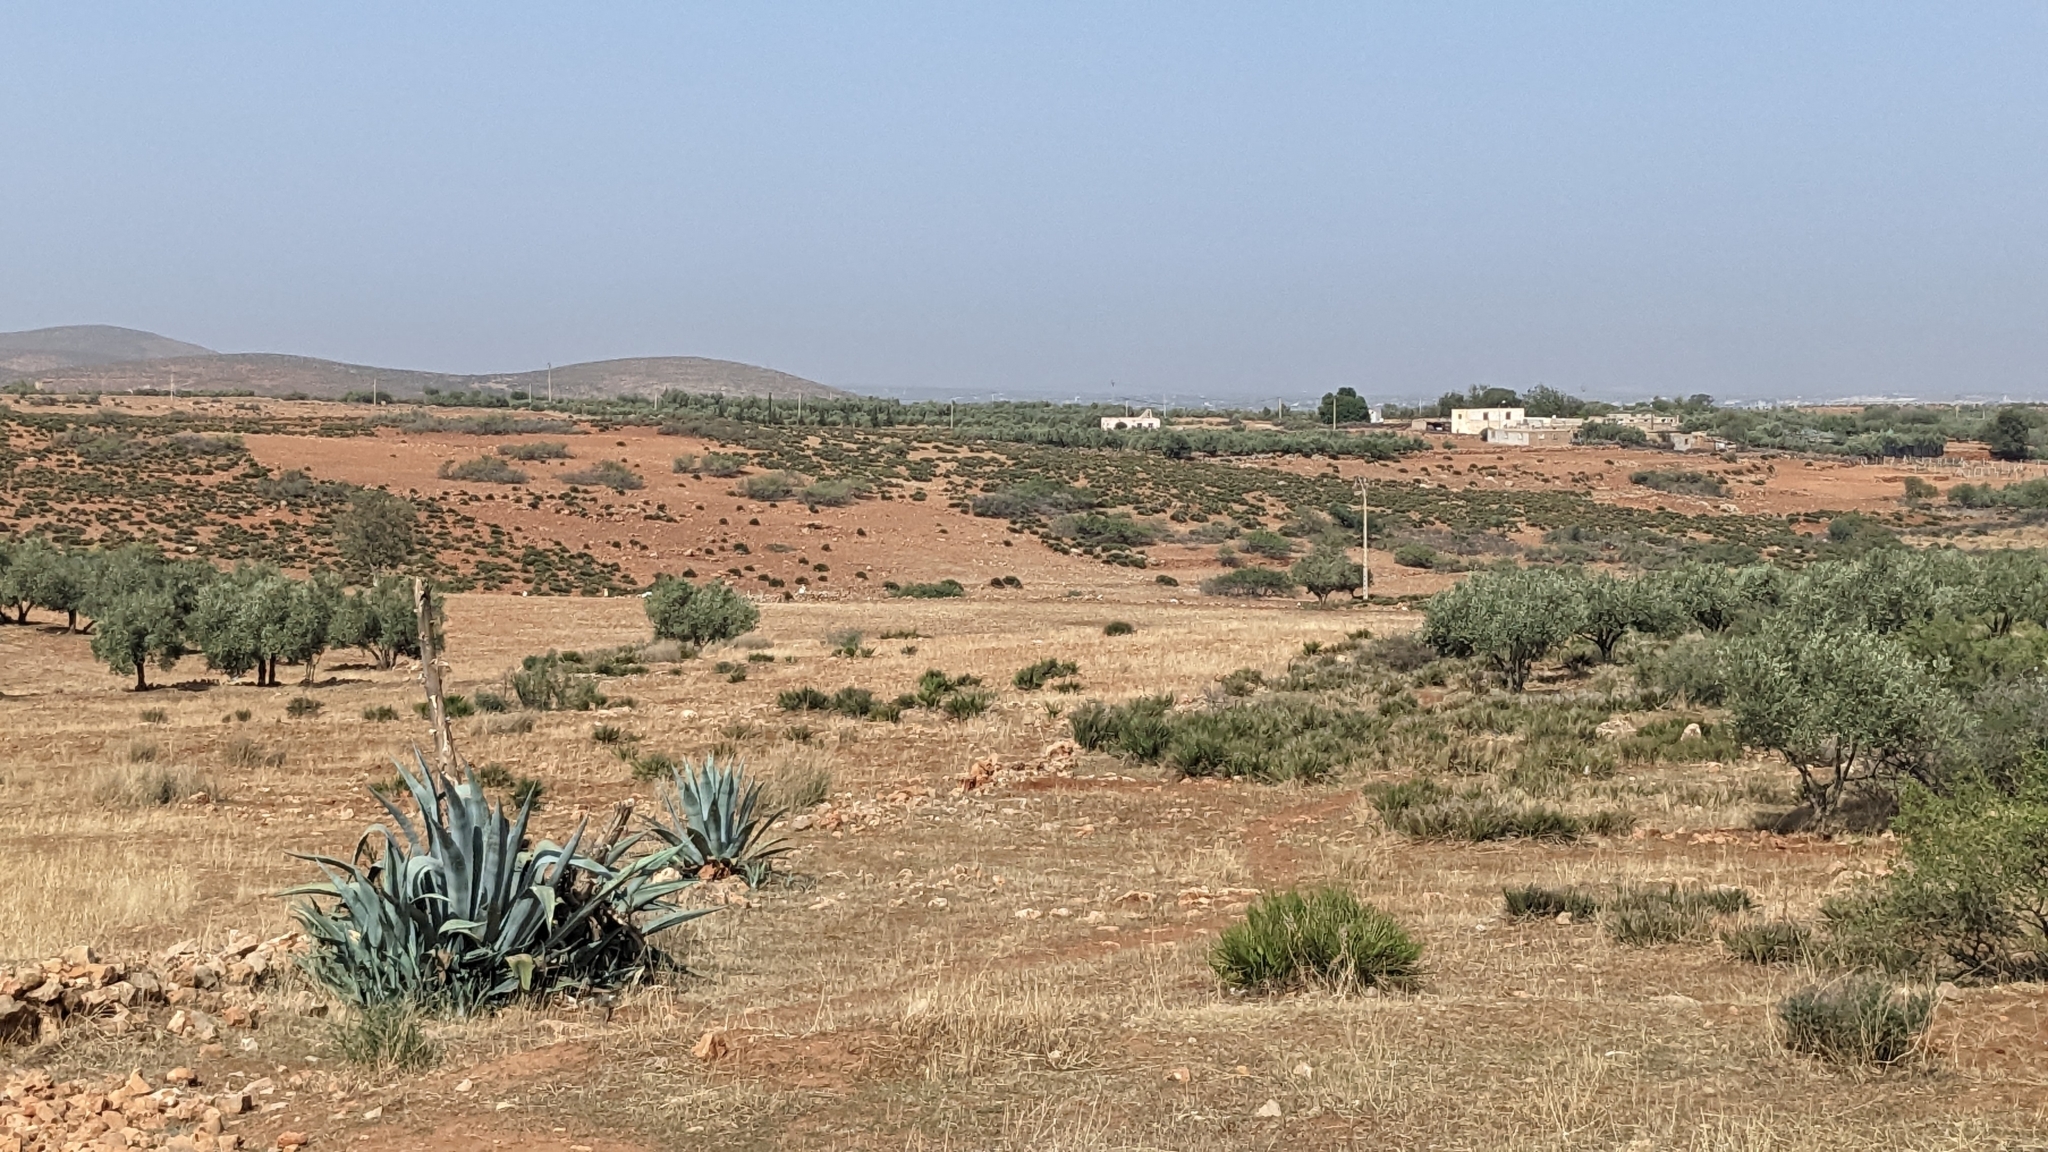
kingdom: Plantae
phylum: Tracheophyta
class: Liliopsida
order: Asparagales
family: Asparagaceae
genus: Agave
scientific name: Agave americana
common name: Centuryplant
